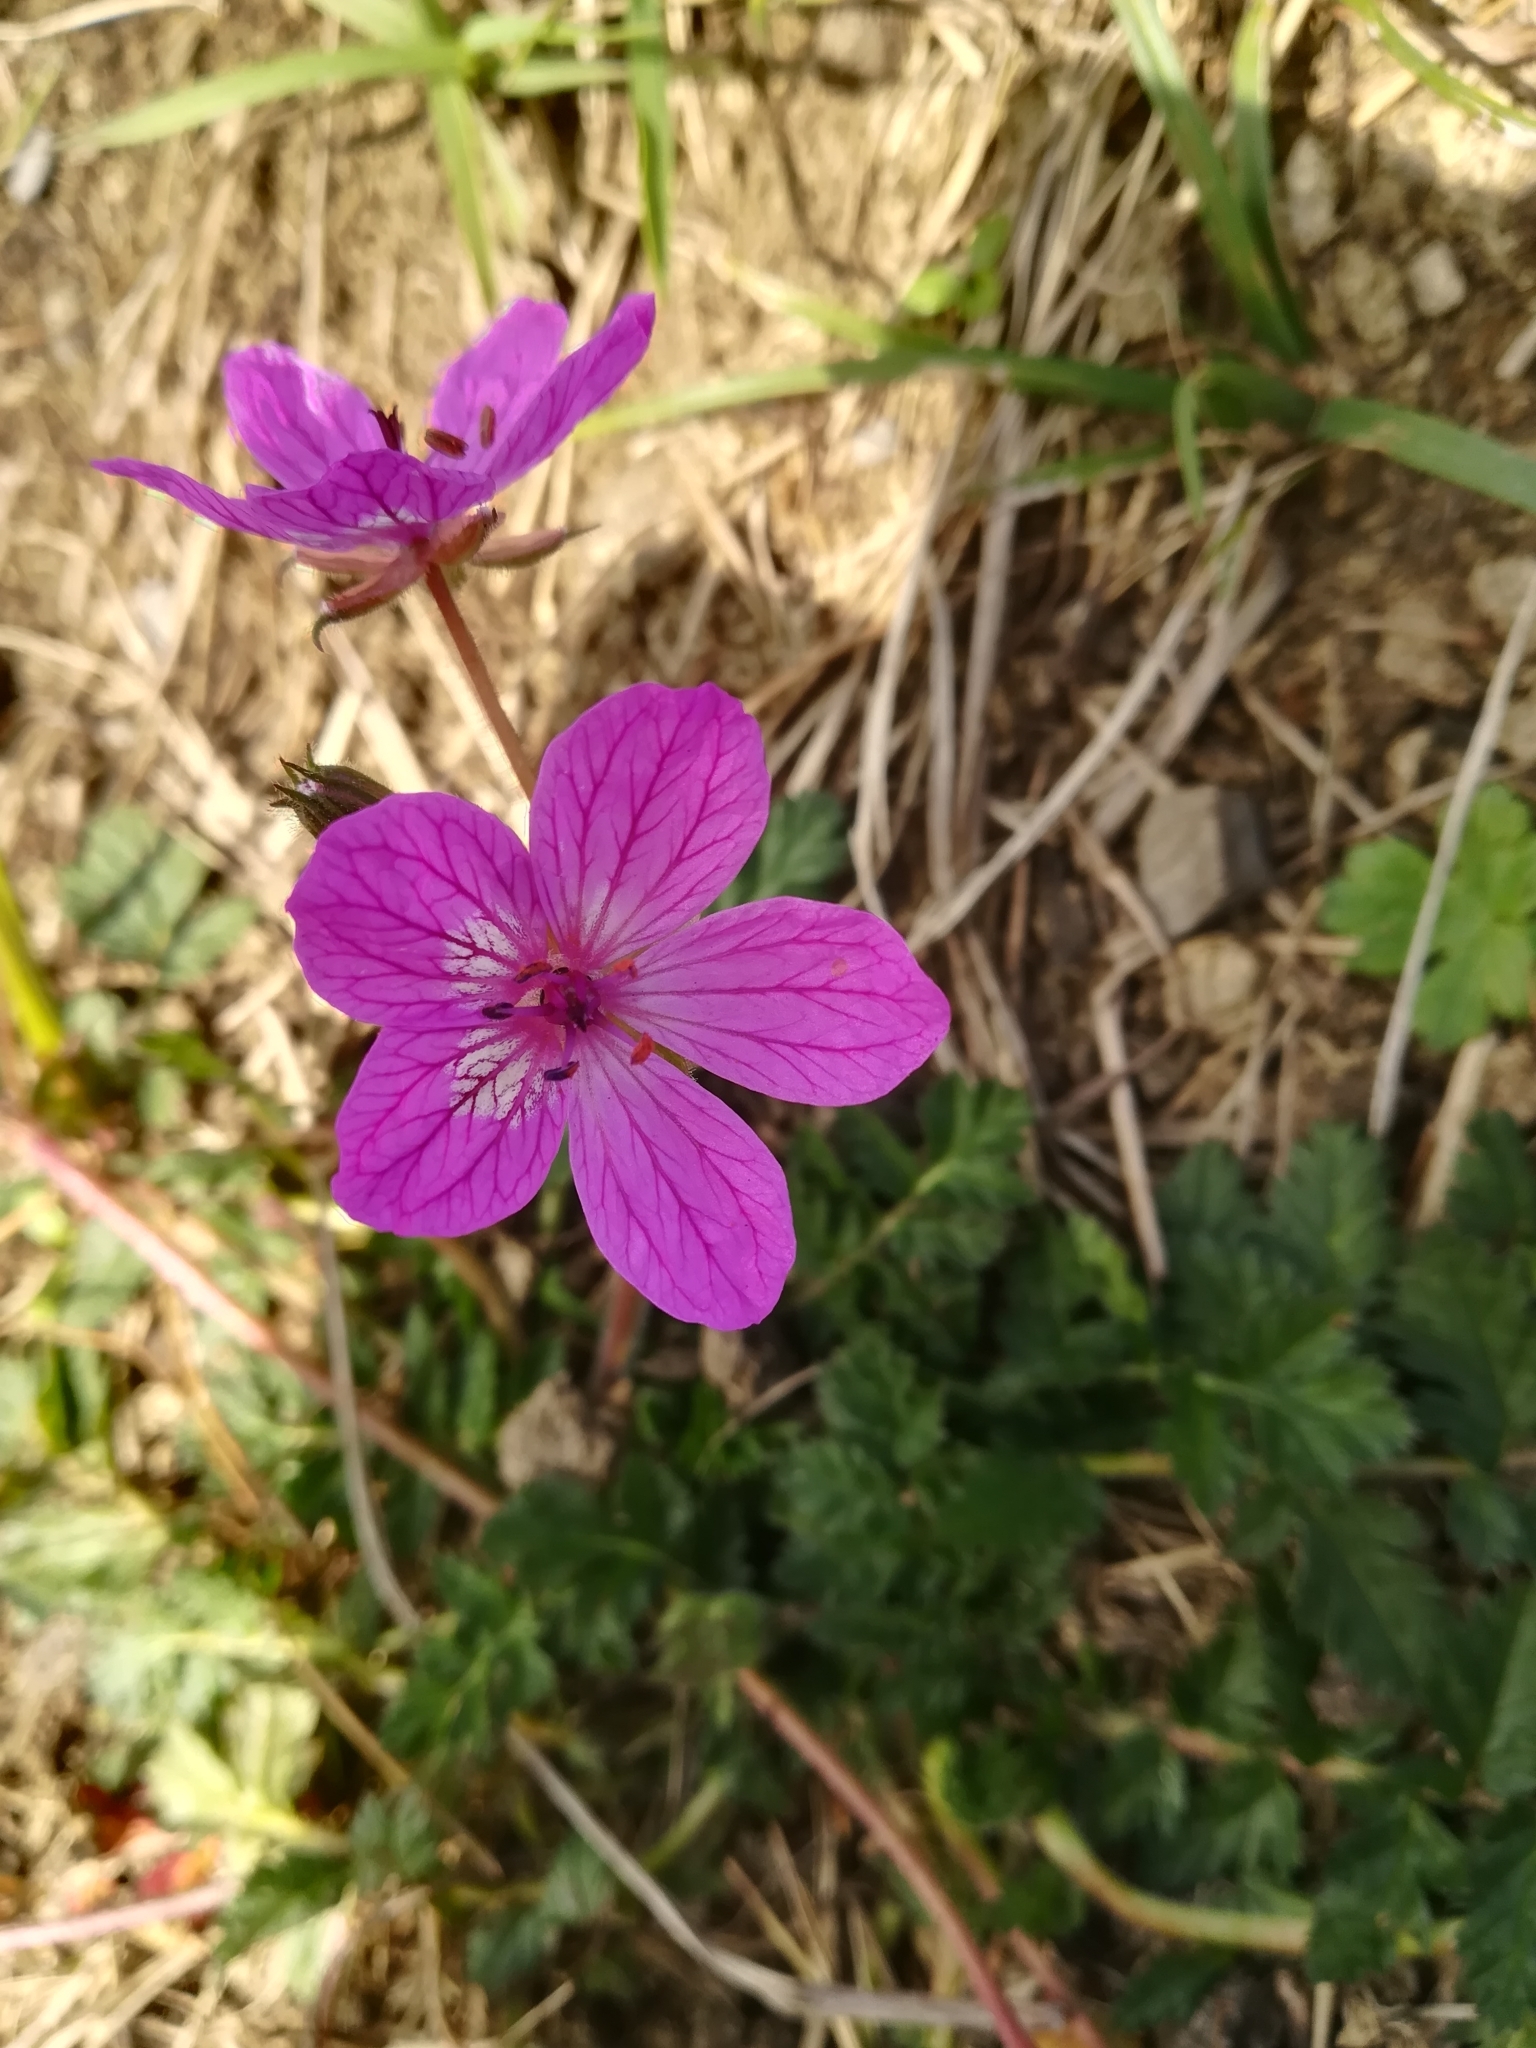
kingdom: Plantae
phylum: Tracheophyta
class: Magnoliopsida
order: Geraniales
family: Geraniaceae
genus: Erodium
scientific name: Erodium manescavi
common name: Garden stork's-bill
